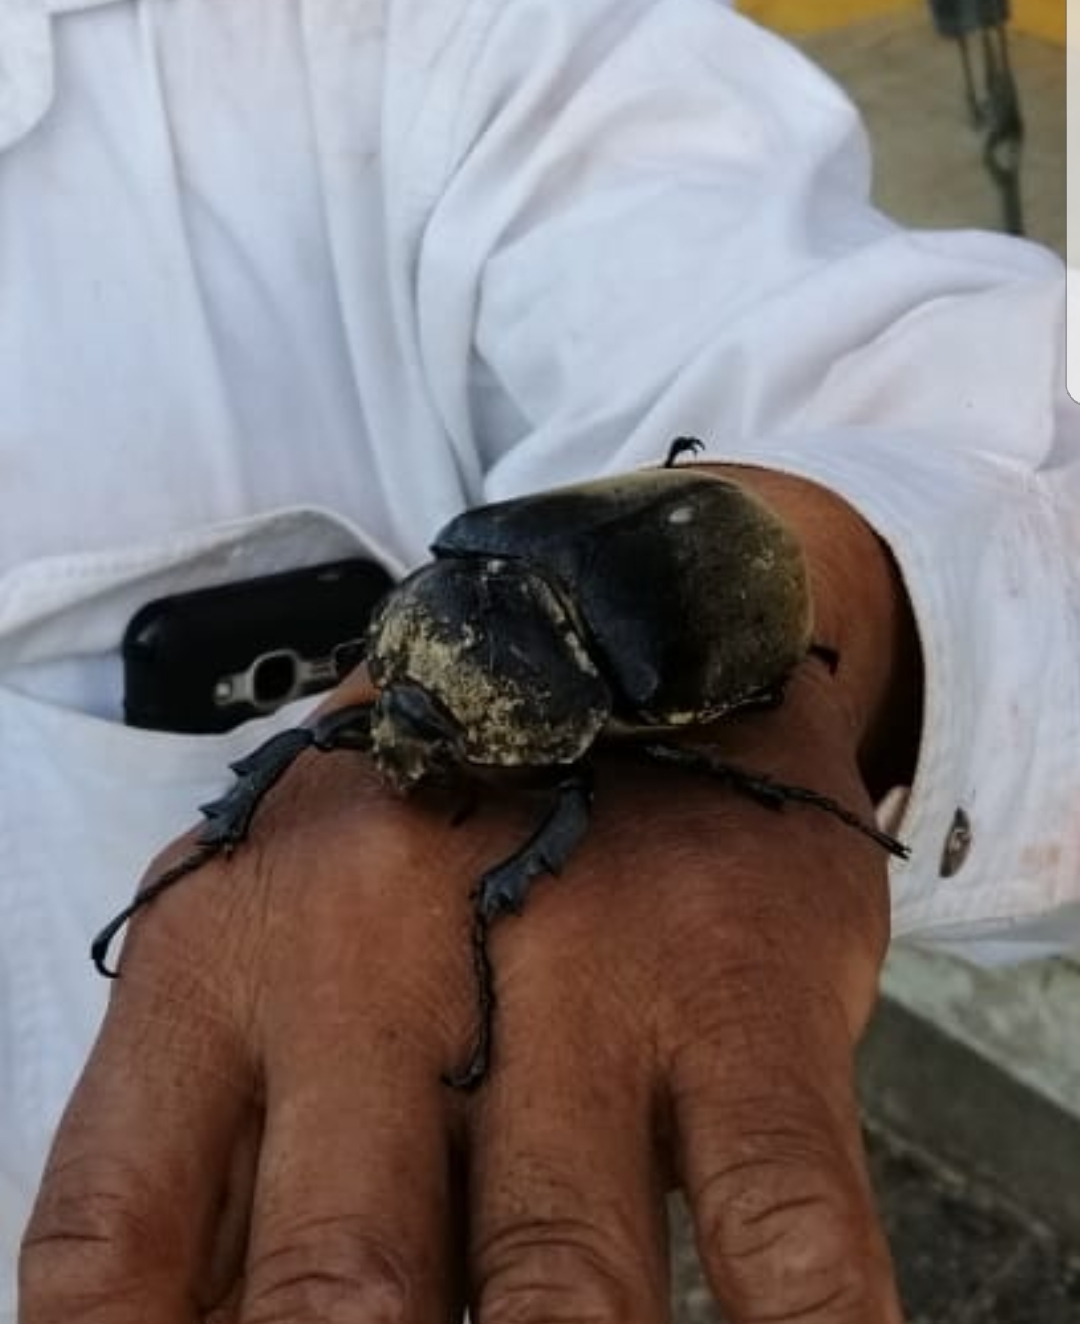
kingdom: Animalia
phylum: Arthropoda
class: Insecta
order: Coleoptera
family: Scarabaeidae
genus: Megasoma
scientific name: Megasoma elephas
